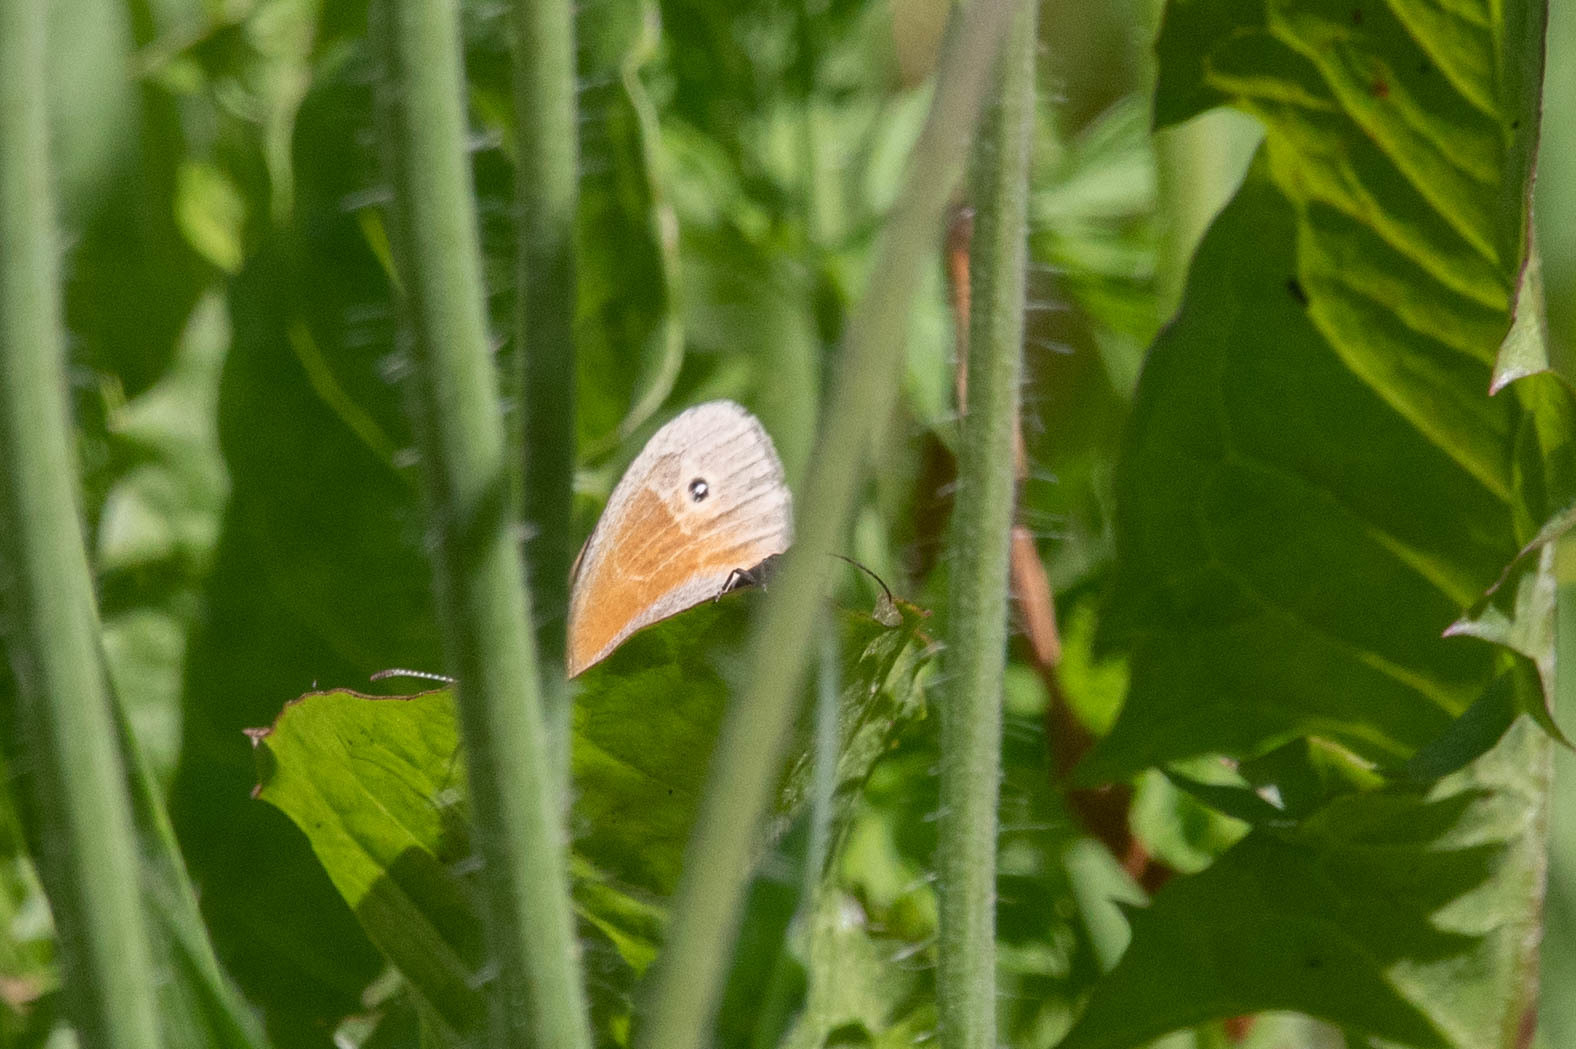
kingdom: Animalia
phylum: Arthropoda
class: Insecta
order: Lepidoptera
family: Nymphalidae
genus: Coenonympha
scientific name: Coenonympha california
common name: Common ringlet
